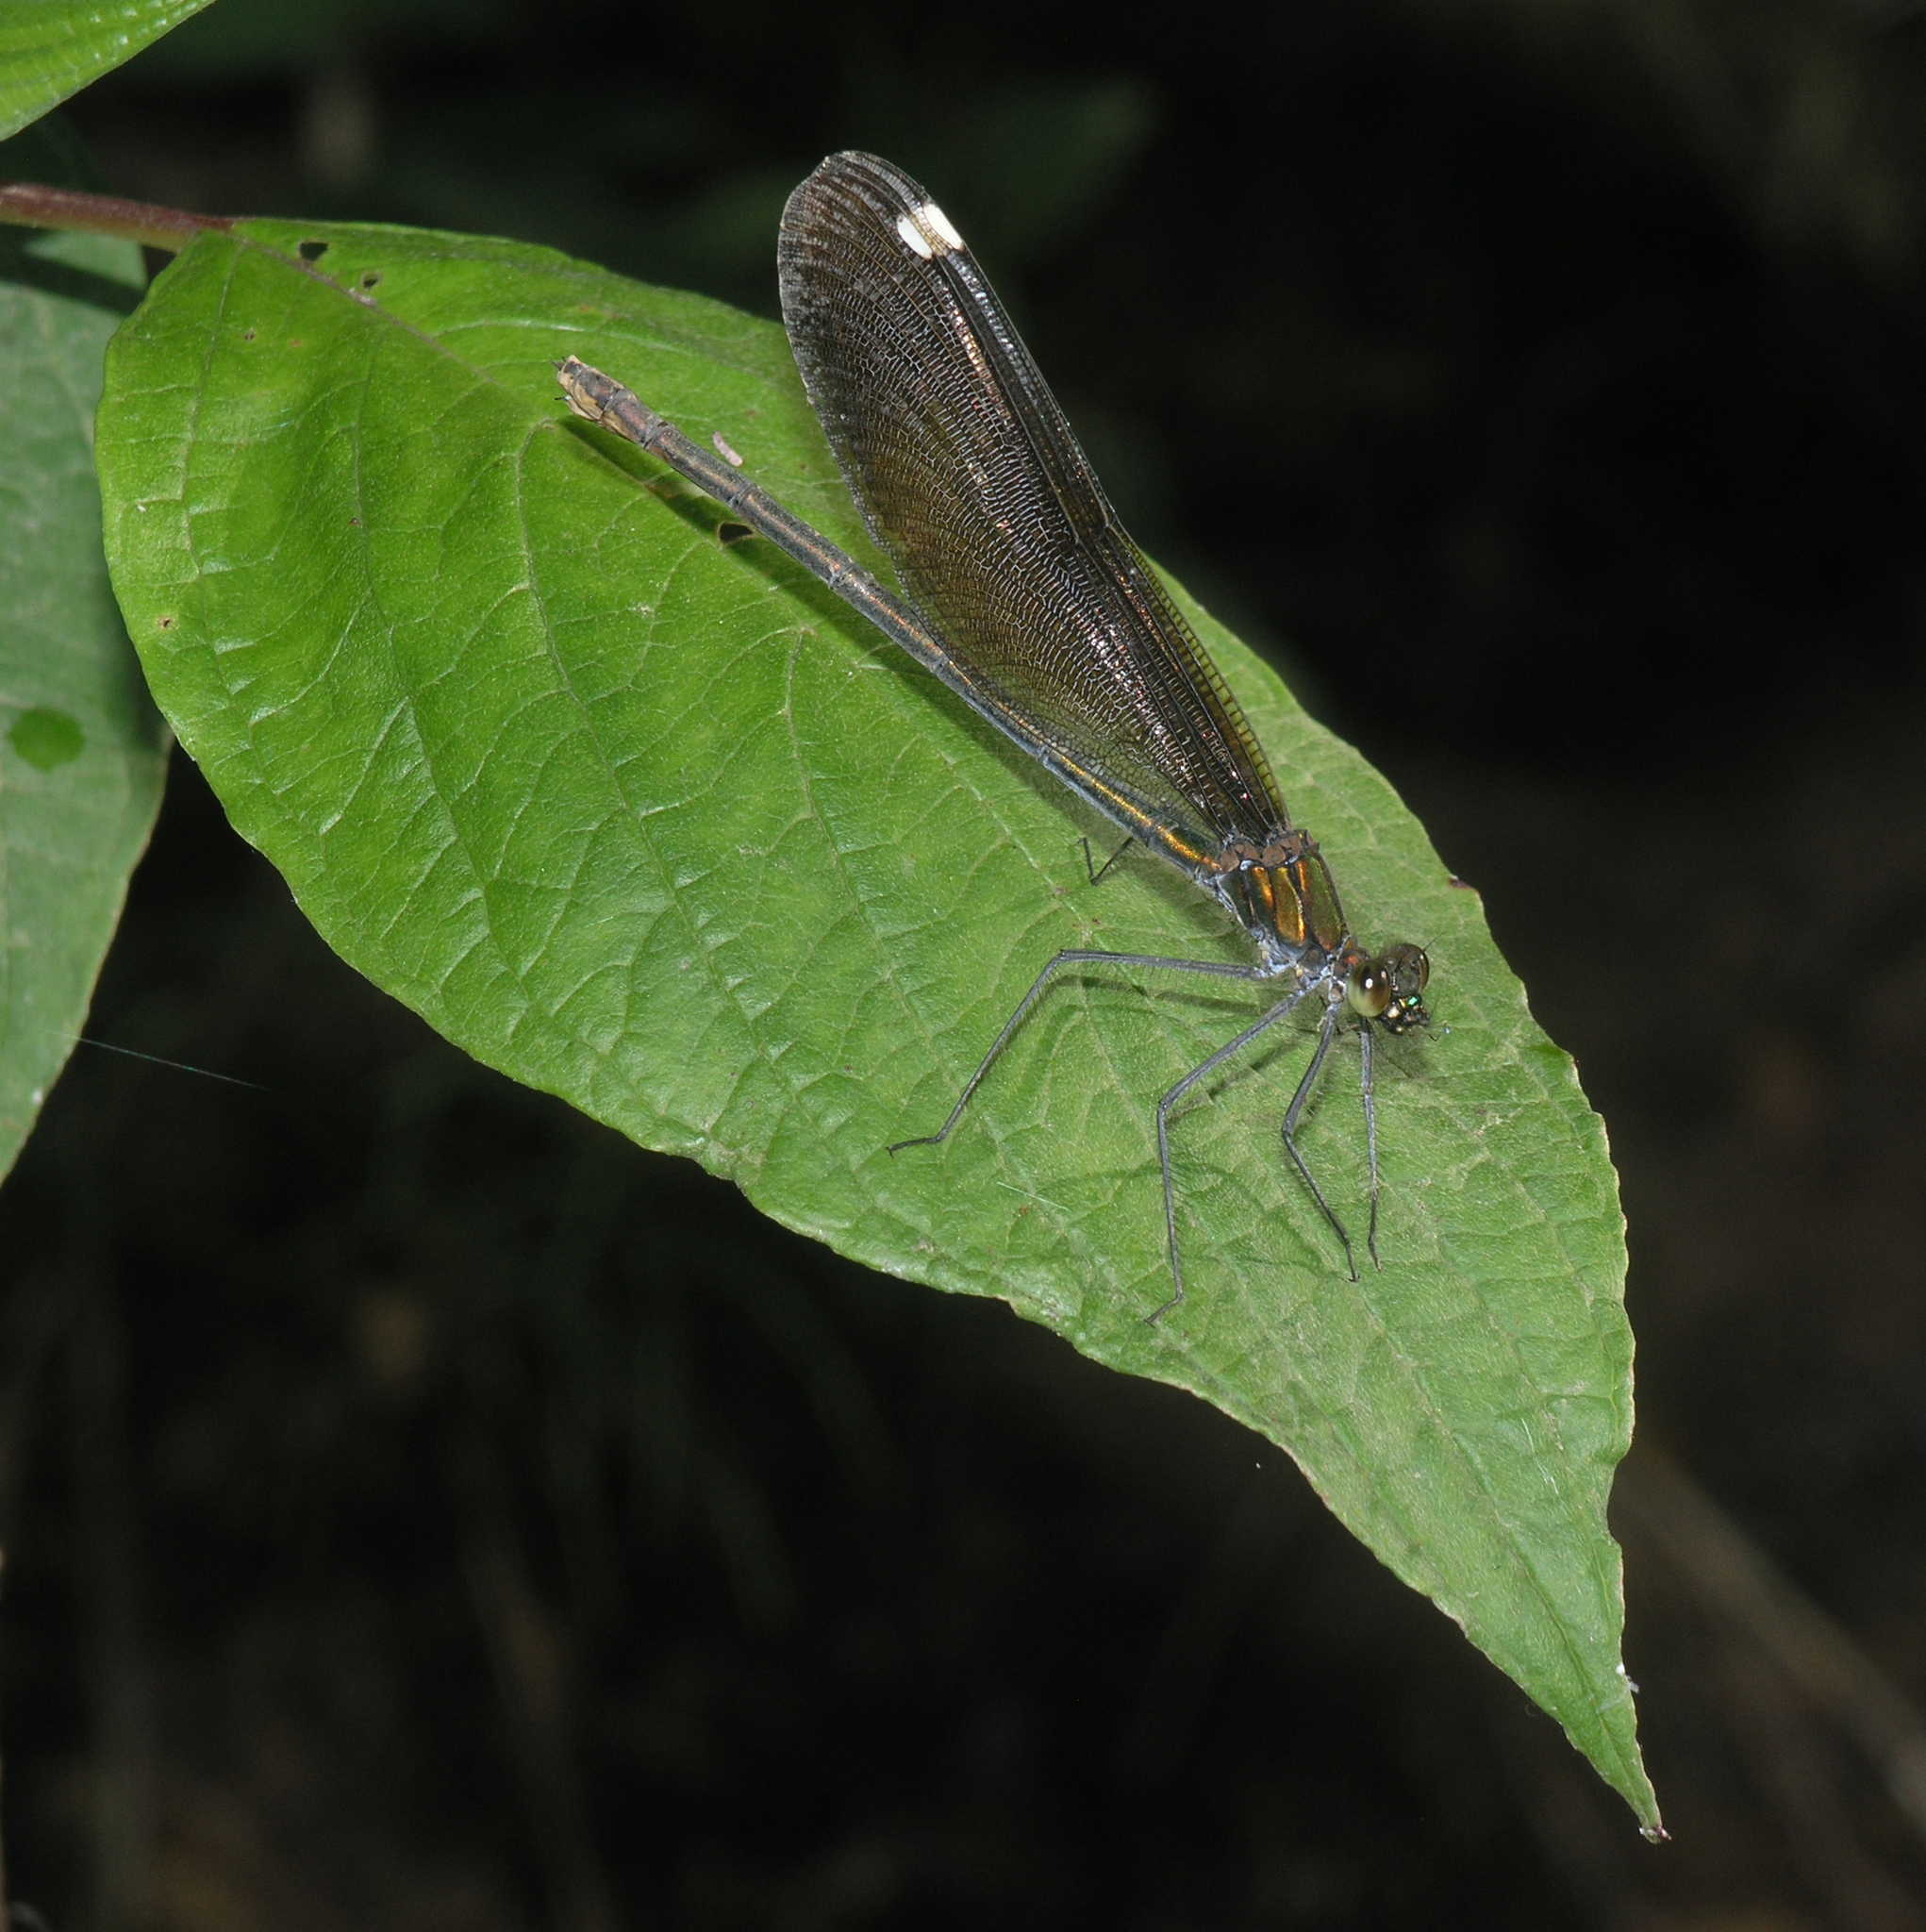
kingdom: Animalia
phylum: Arthropoda
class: Insecta
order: Odonata
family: Calopterygidae
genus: Calopteryx
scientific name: Calopteryx japonica
